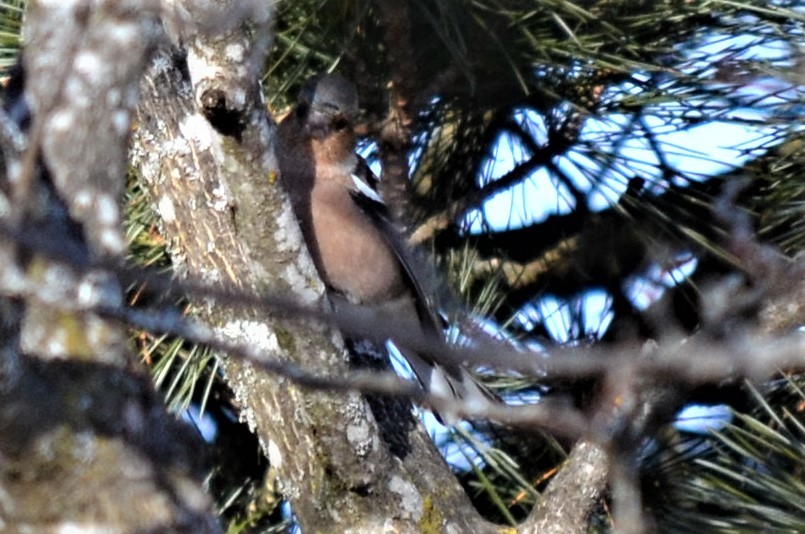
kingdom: Animalia
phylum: Chordata
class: Aves
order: Passeriformes
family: Fringillidae
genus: Fringilla
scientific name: Fringilla coelebs
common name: Common chaffinch
